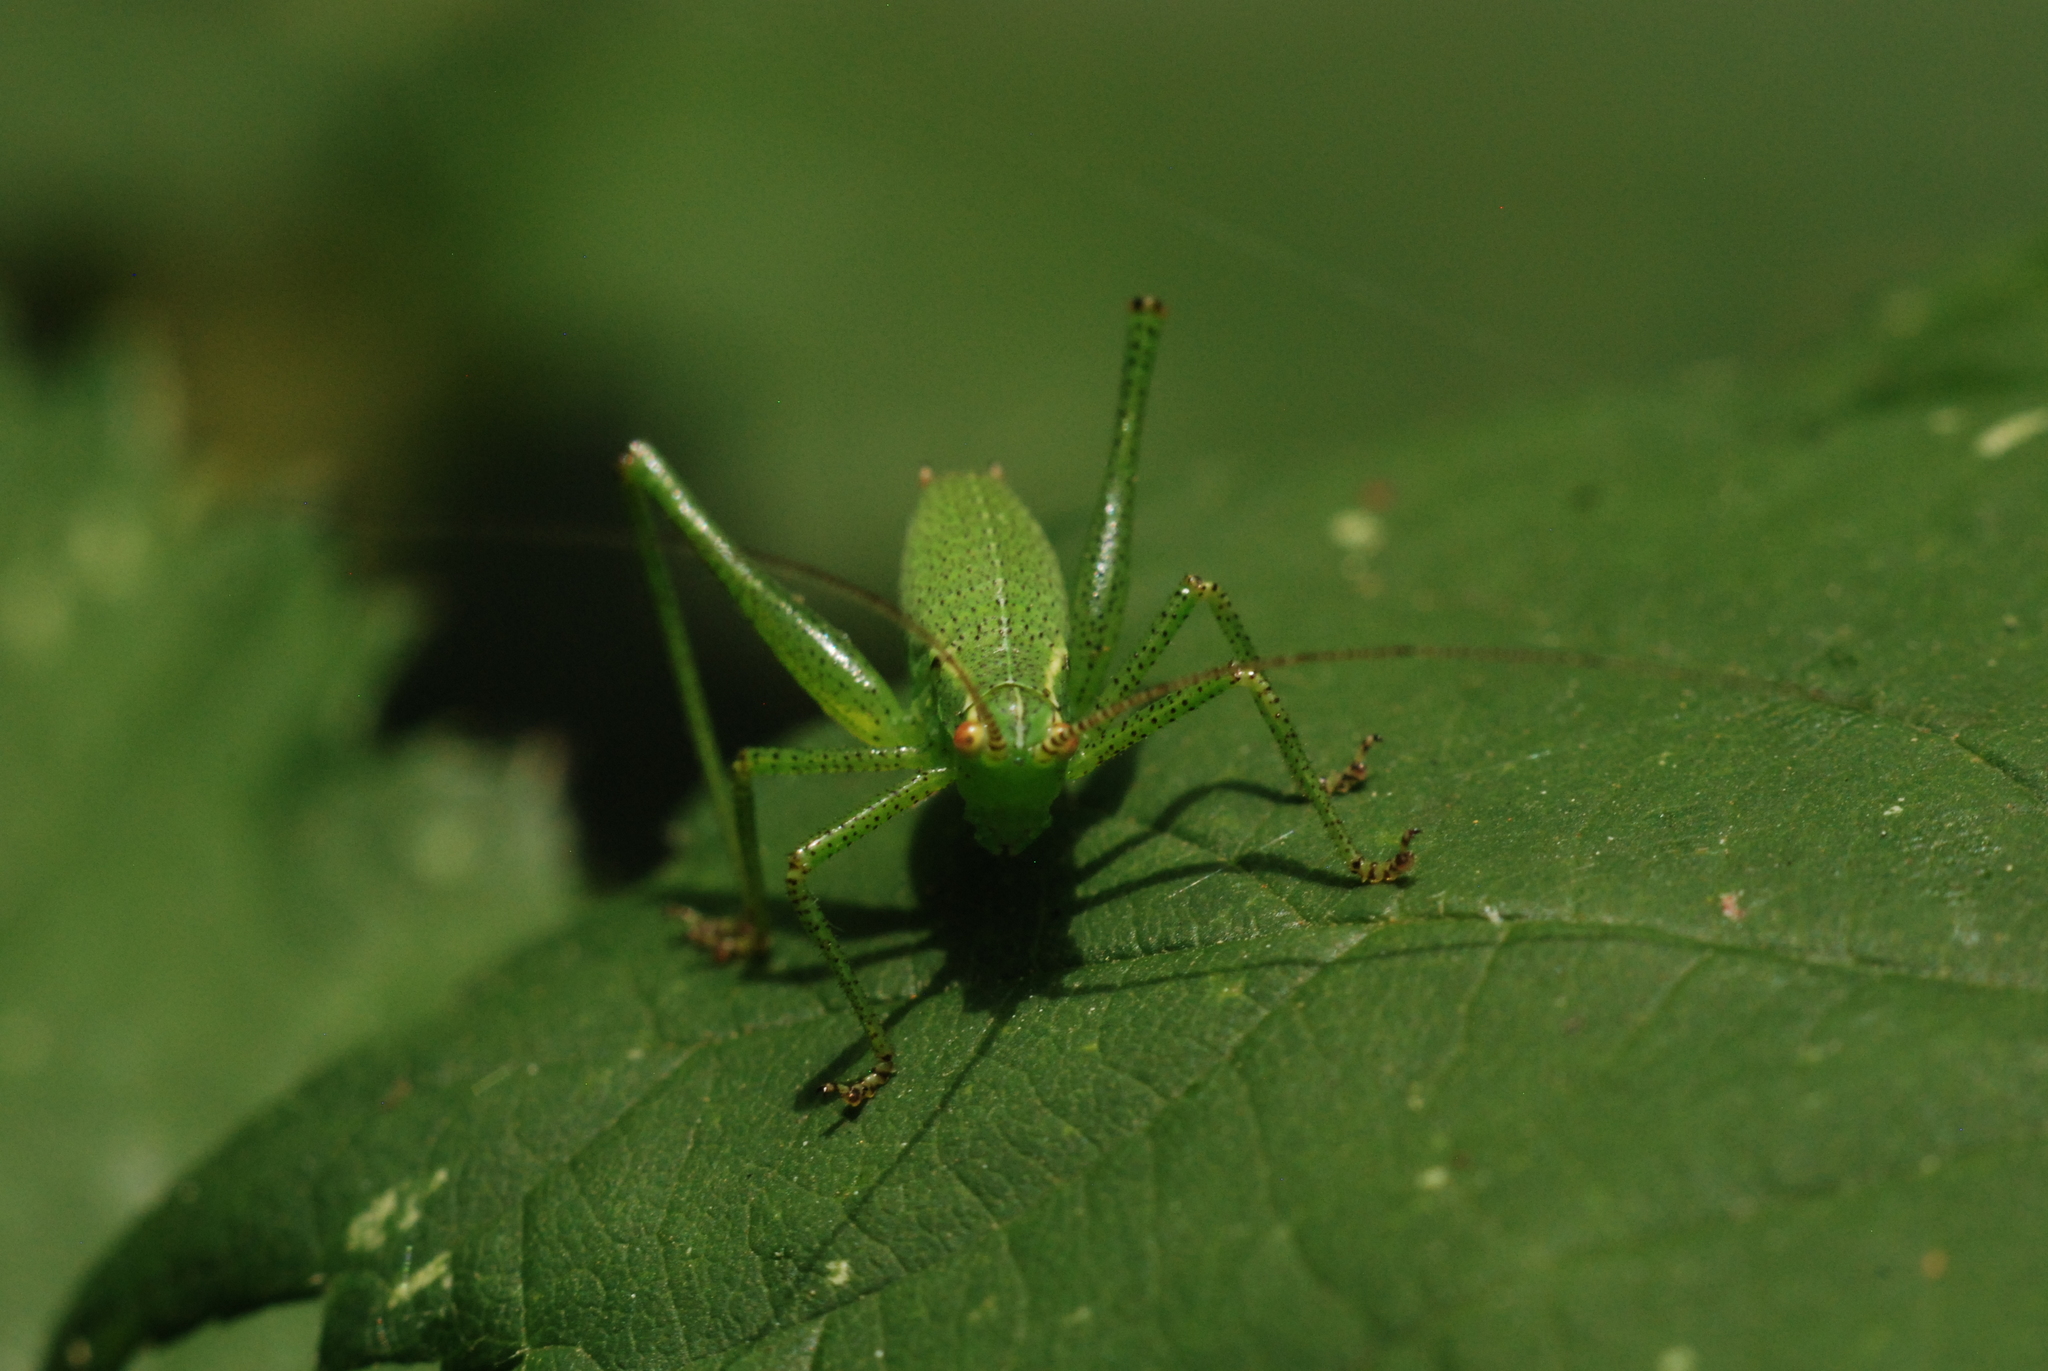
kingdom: Animalia
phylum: Arthropoda
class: Insecta
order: Orthoptera
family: Tettigoniidae
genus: Leptophyes
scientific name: Leptophyes punctatissima
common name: Speckled bush-cricket
